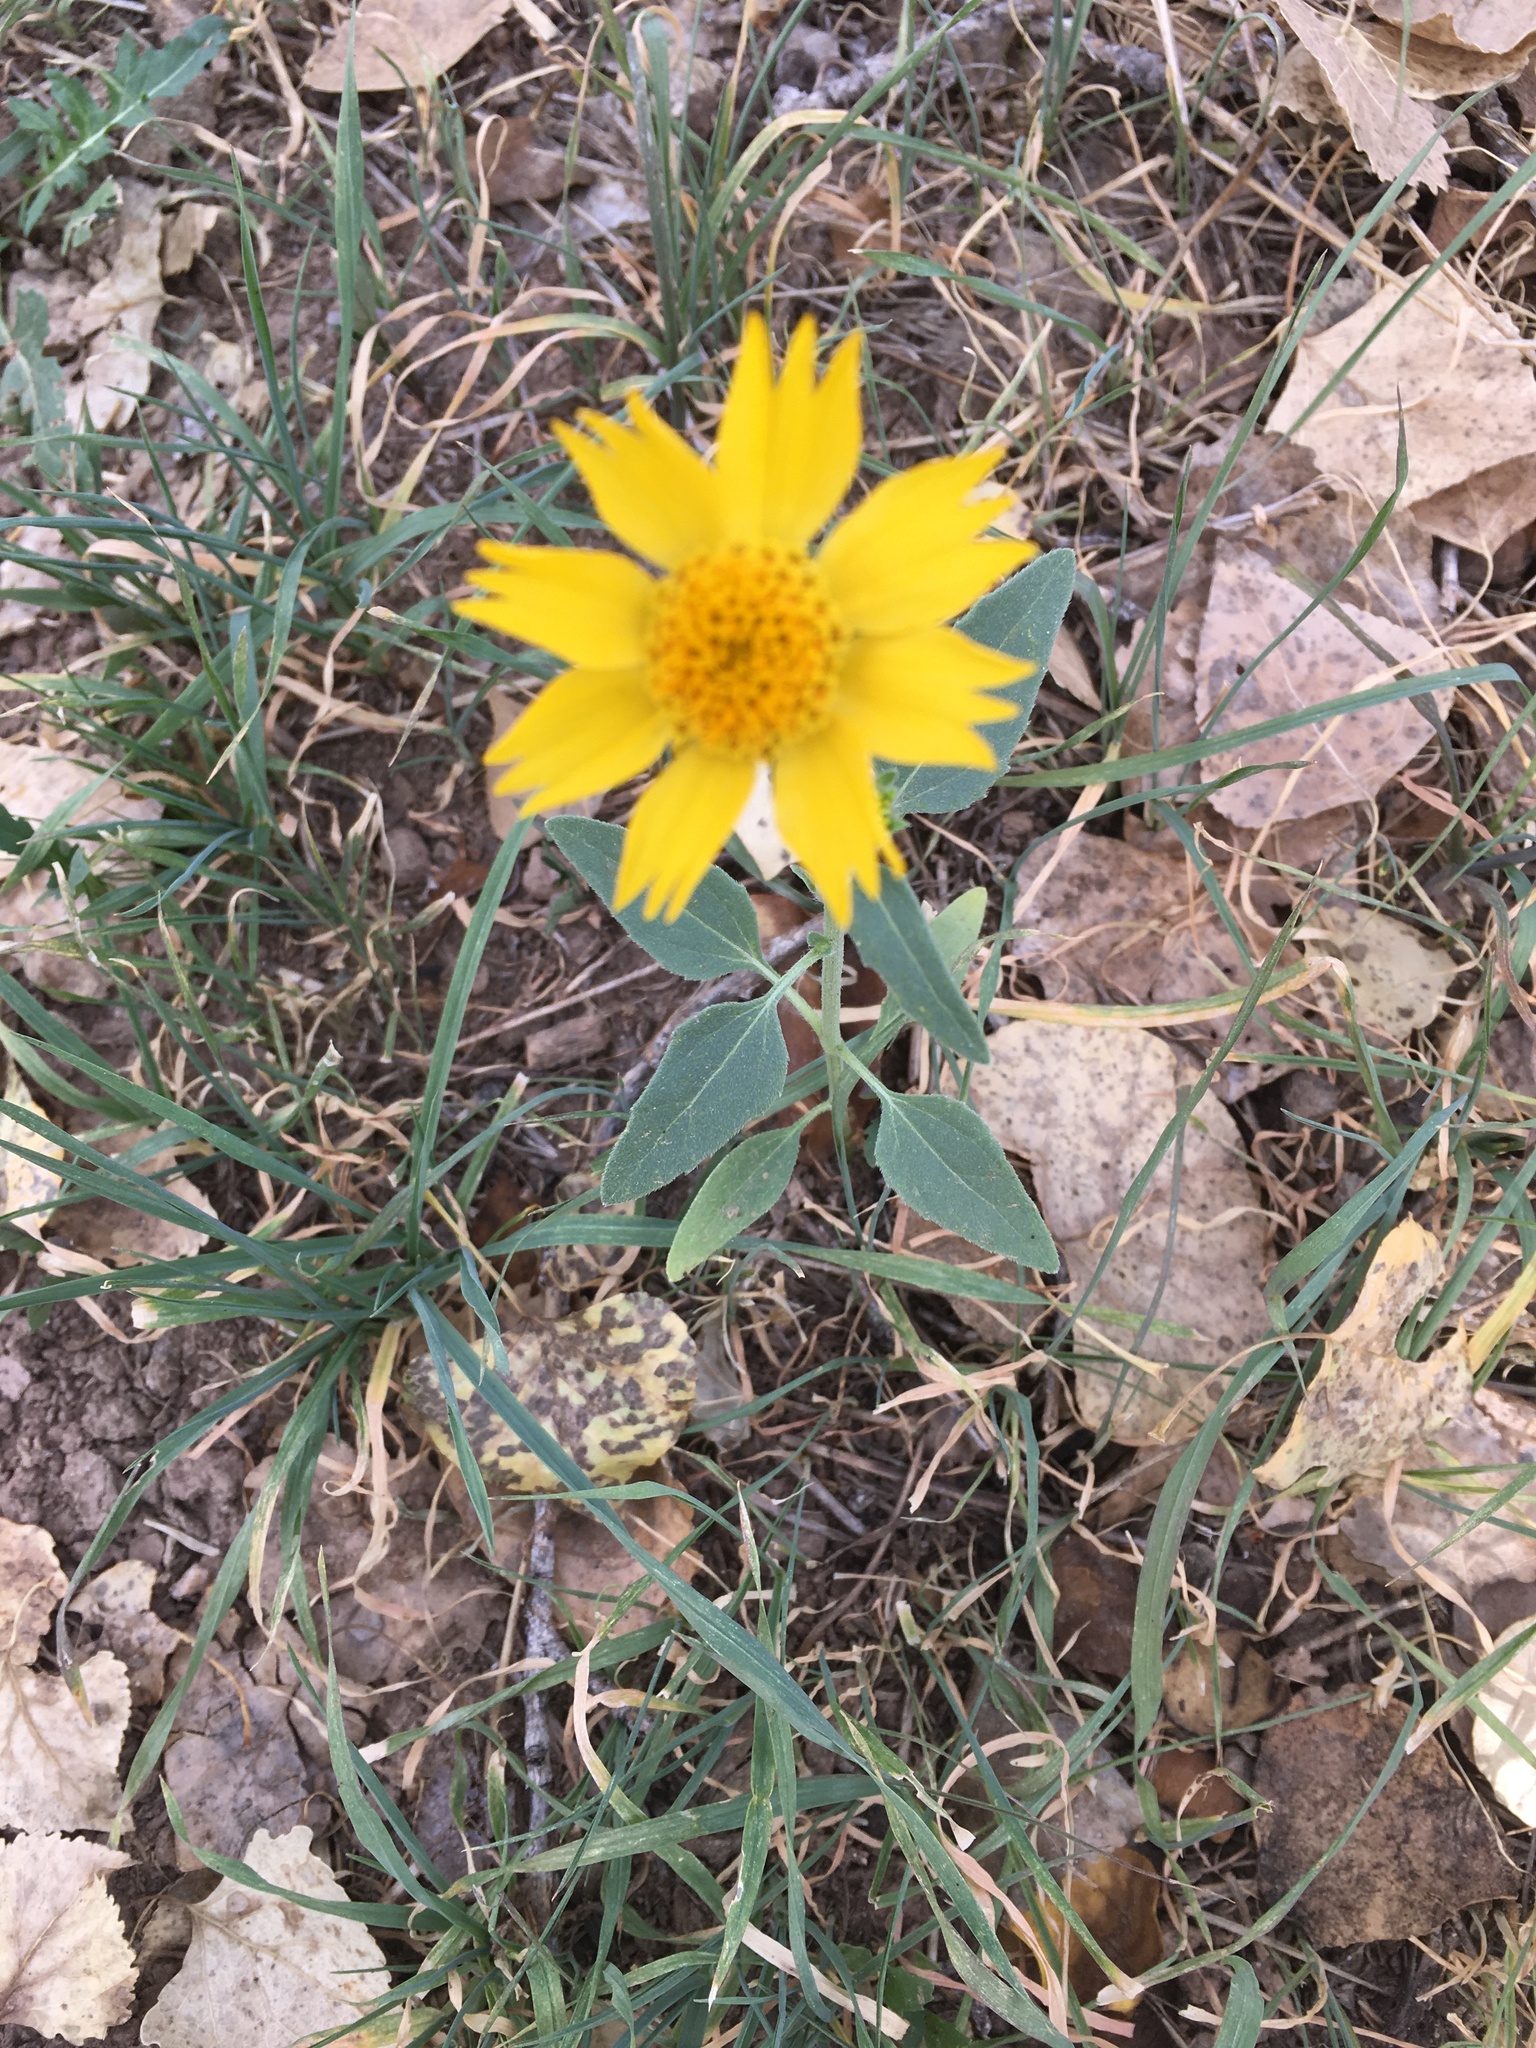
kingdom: Plantae
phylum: Tracheophyta
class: Magnoliopsida
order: Asterales
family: Asteraceae
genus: Verbesina
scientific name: Verbesina encelioides
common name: Golden crownbeard
